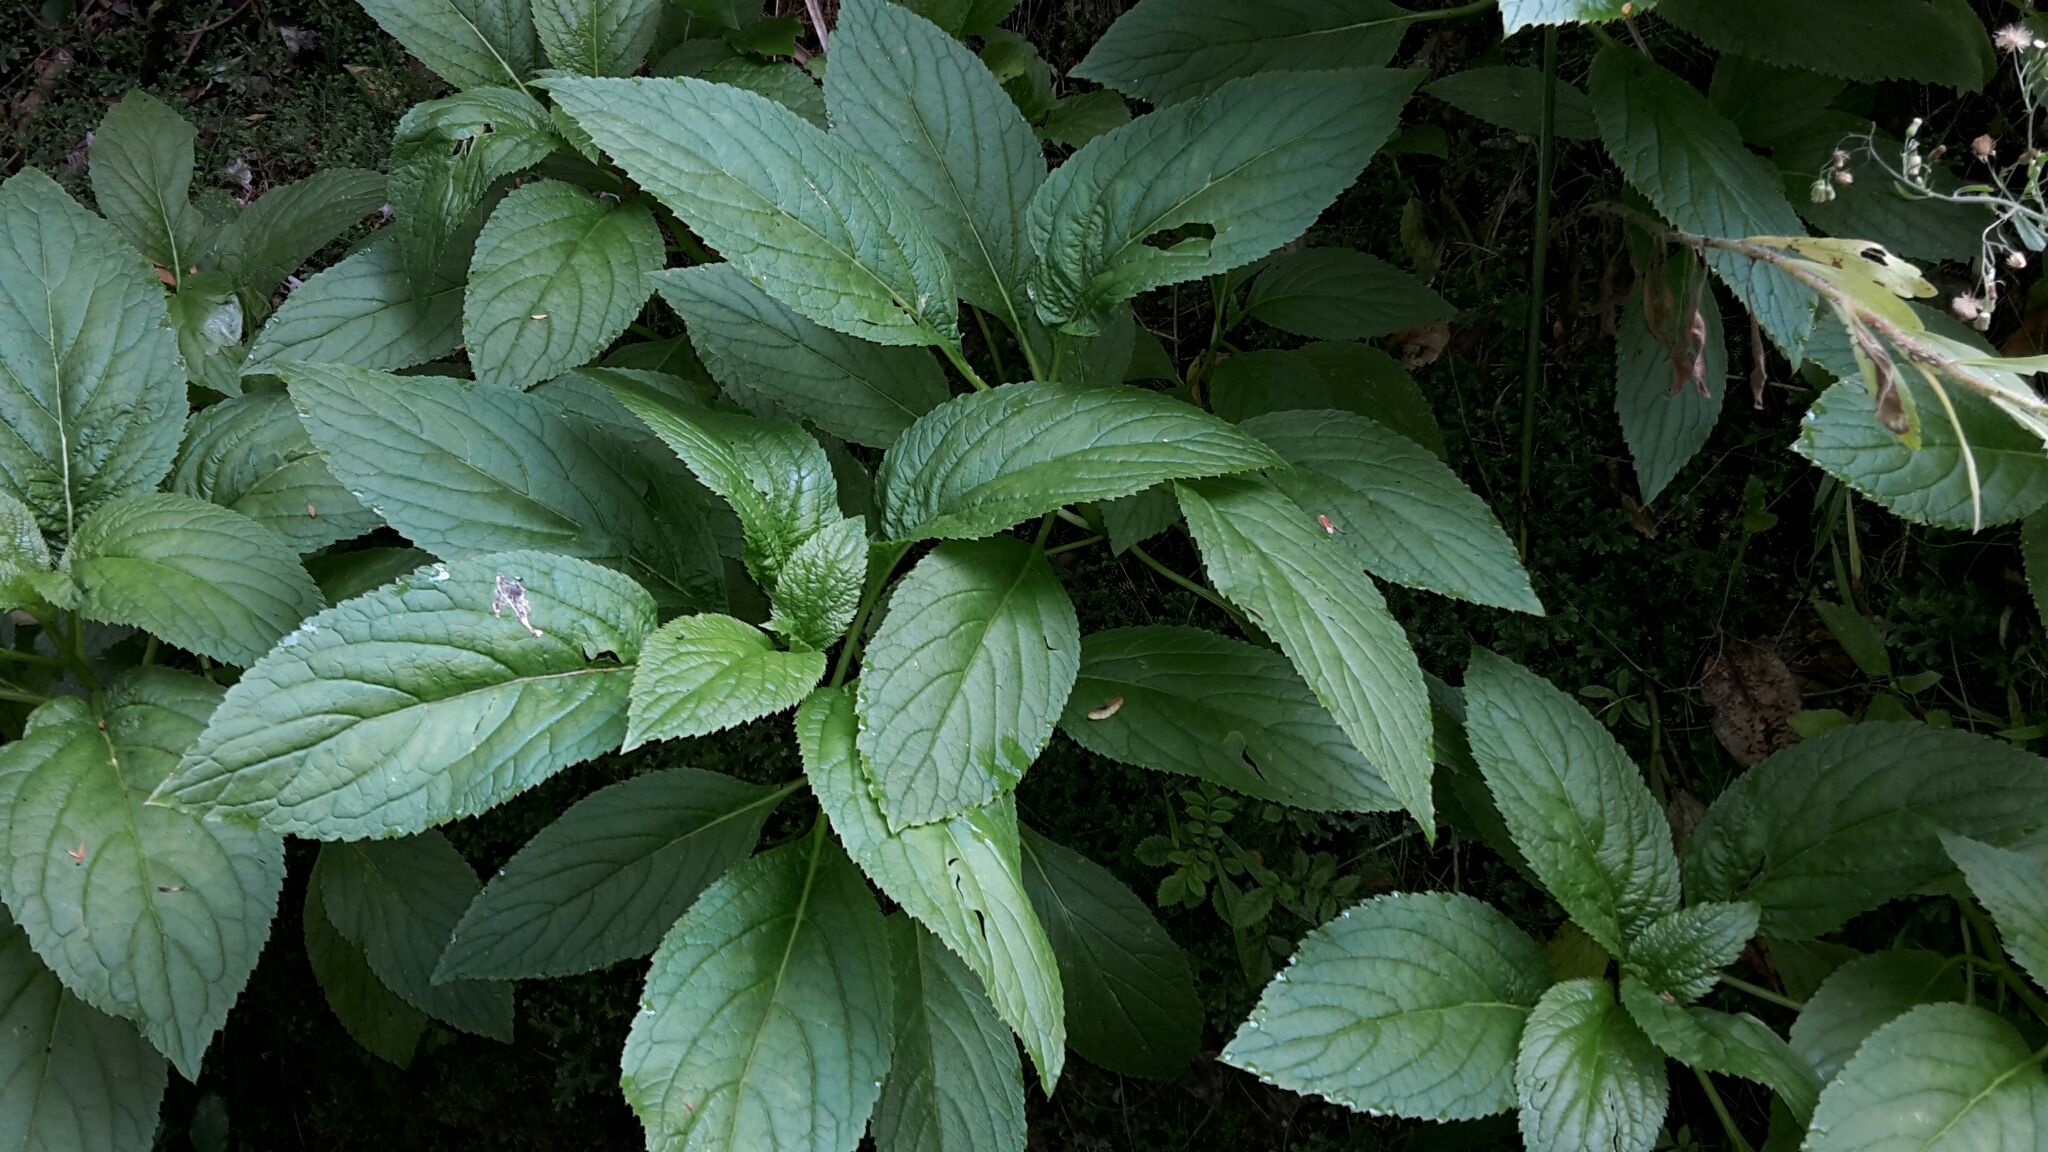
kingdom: Plantae
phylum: Tracheophyta
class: Magnoliopsida
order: Asterales
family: Campanulaceae
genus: Lobelia
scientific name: Lobelia physaloides
